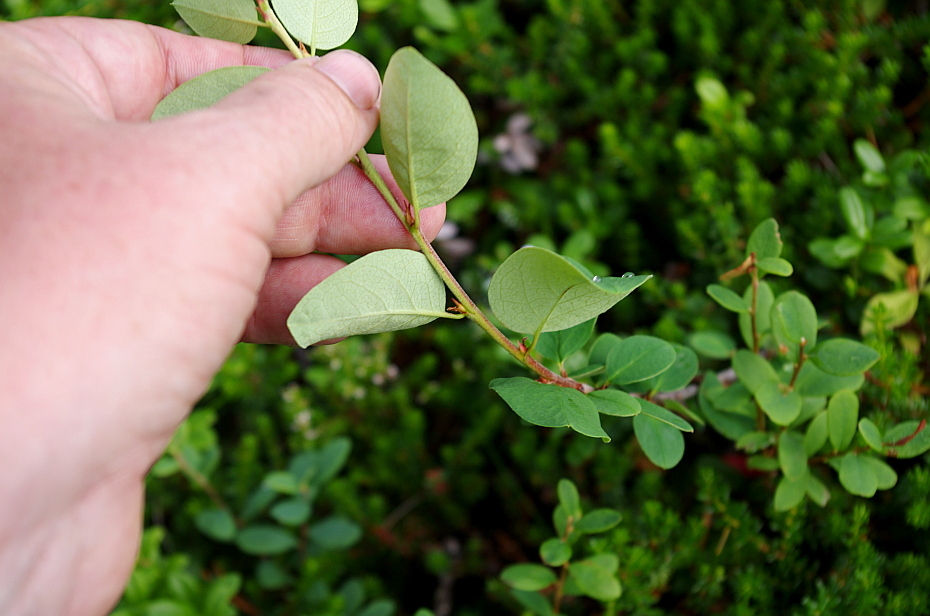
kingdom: Plantae
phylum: Tracheophyta
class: Magnoliopsida
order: Rosales
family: Rosaceae
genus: Cotoneaster
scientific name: Cotoneaster integerrimus
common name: Wild cotoneaster
